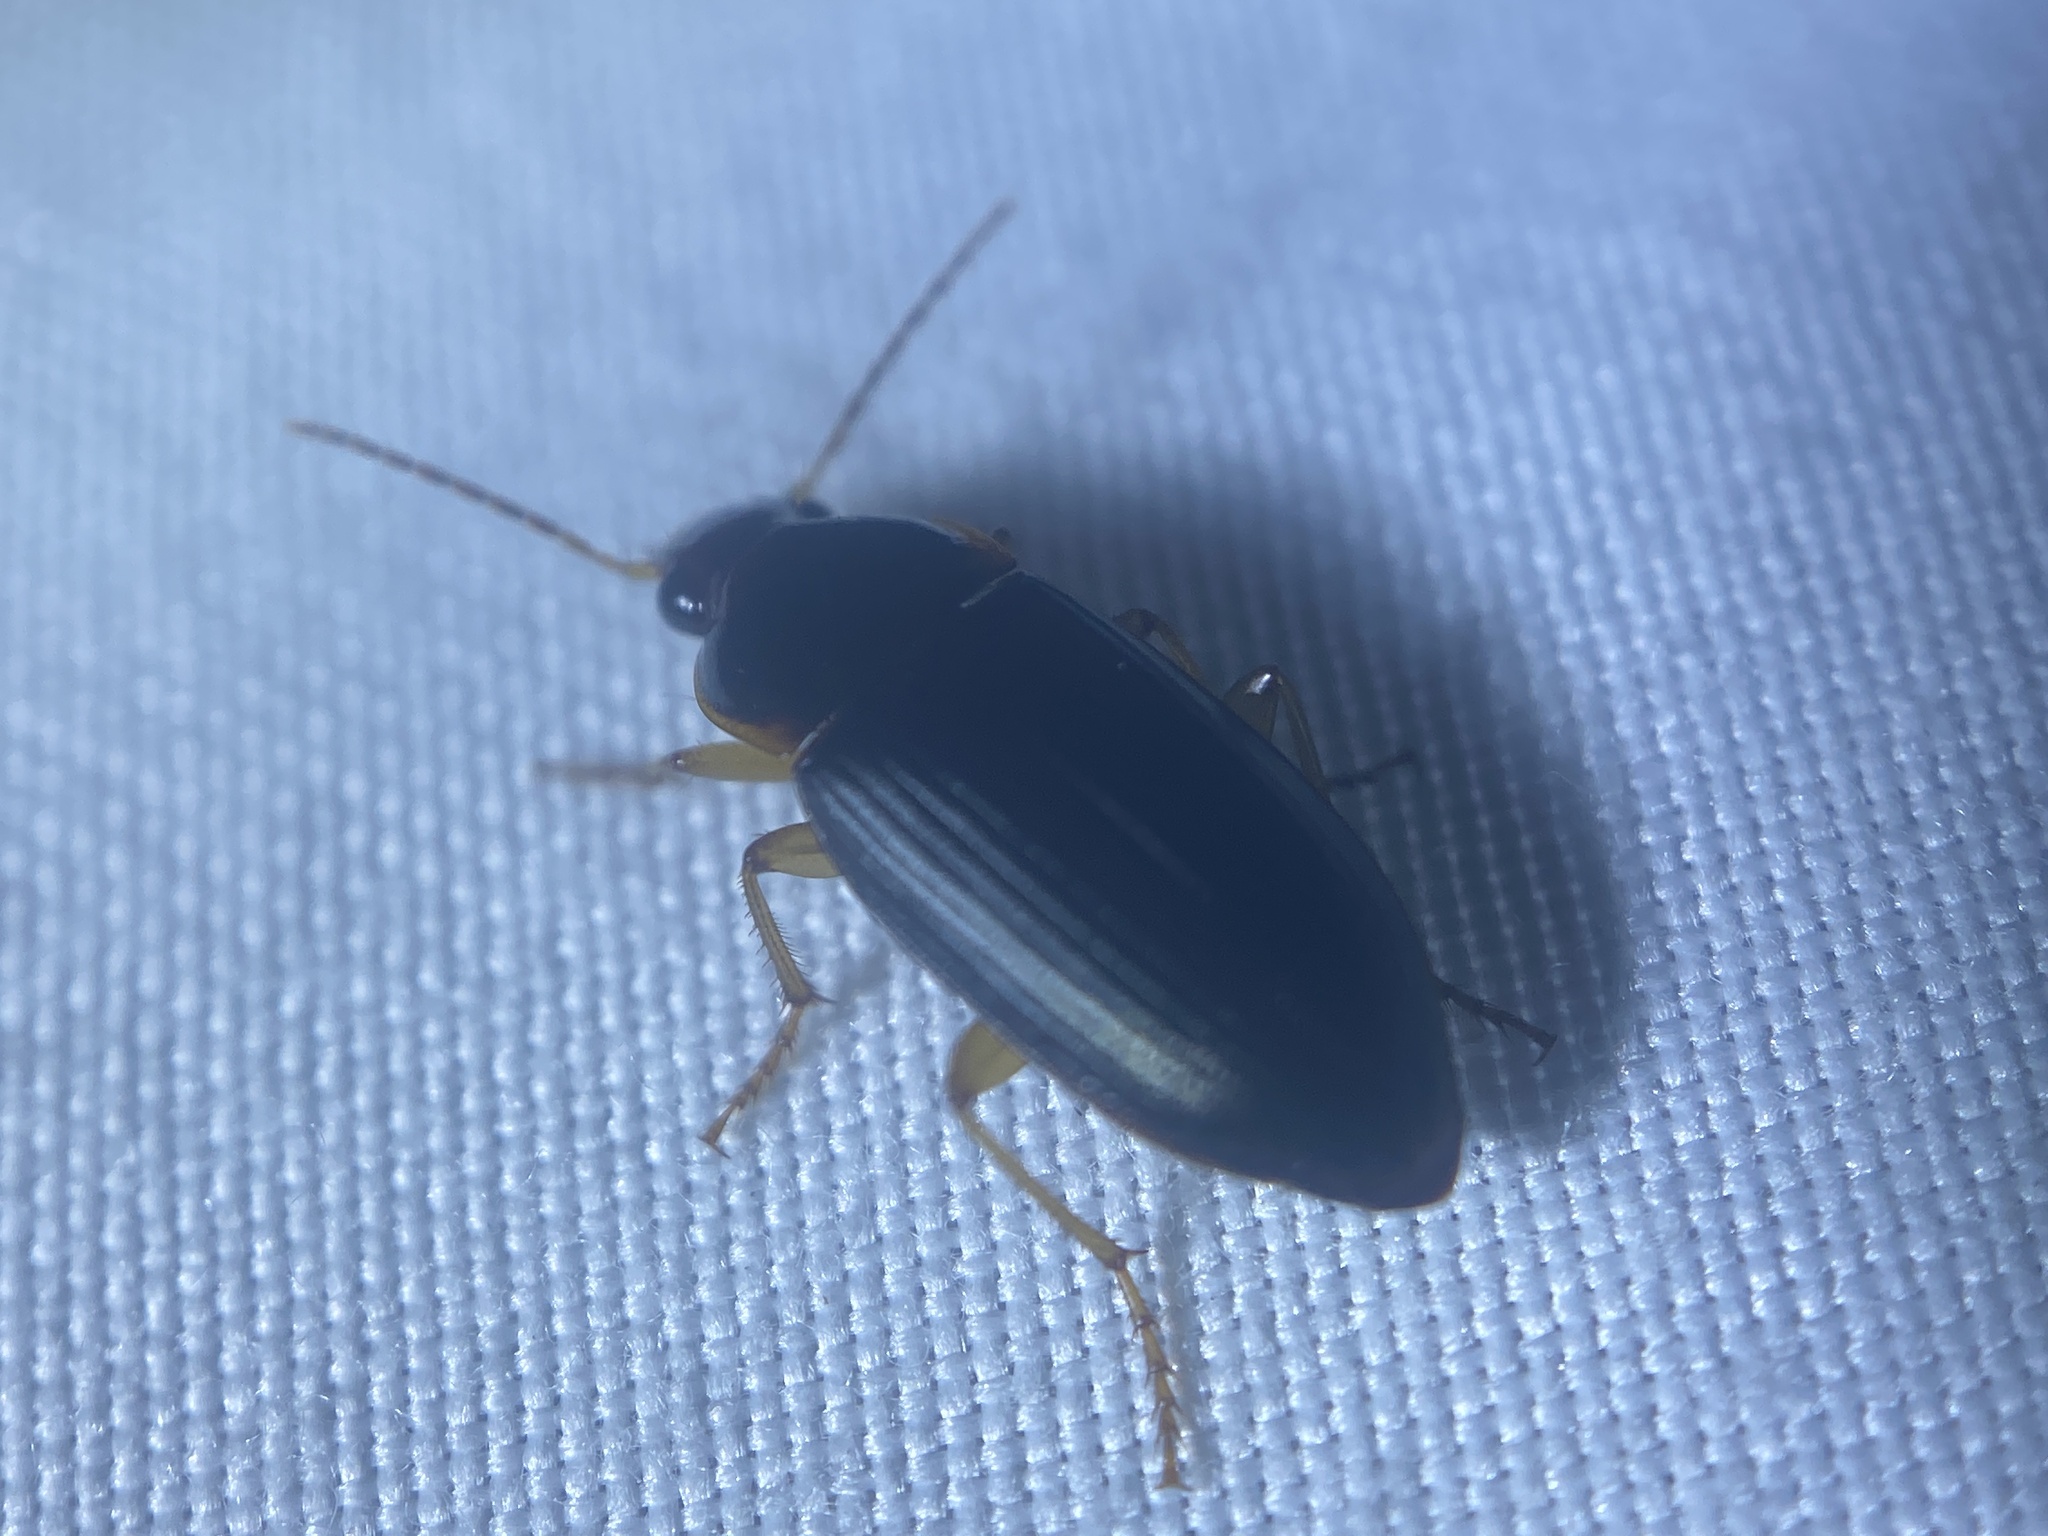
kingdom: Animalia
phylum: Arthropoda
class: Insecta
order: Coleoptera
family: Carabidae
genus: Notiobia
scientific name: Notiobia terminata
